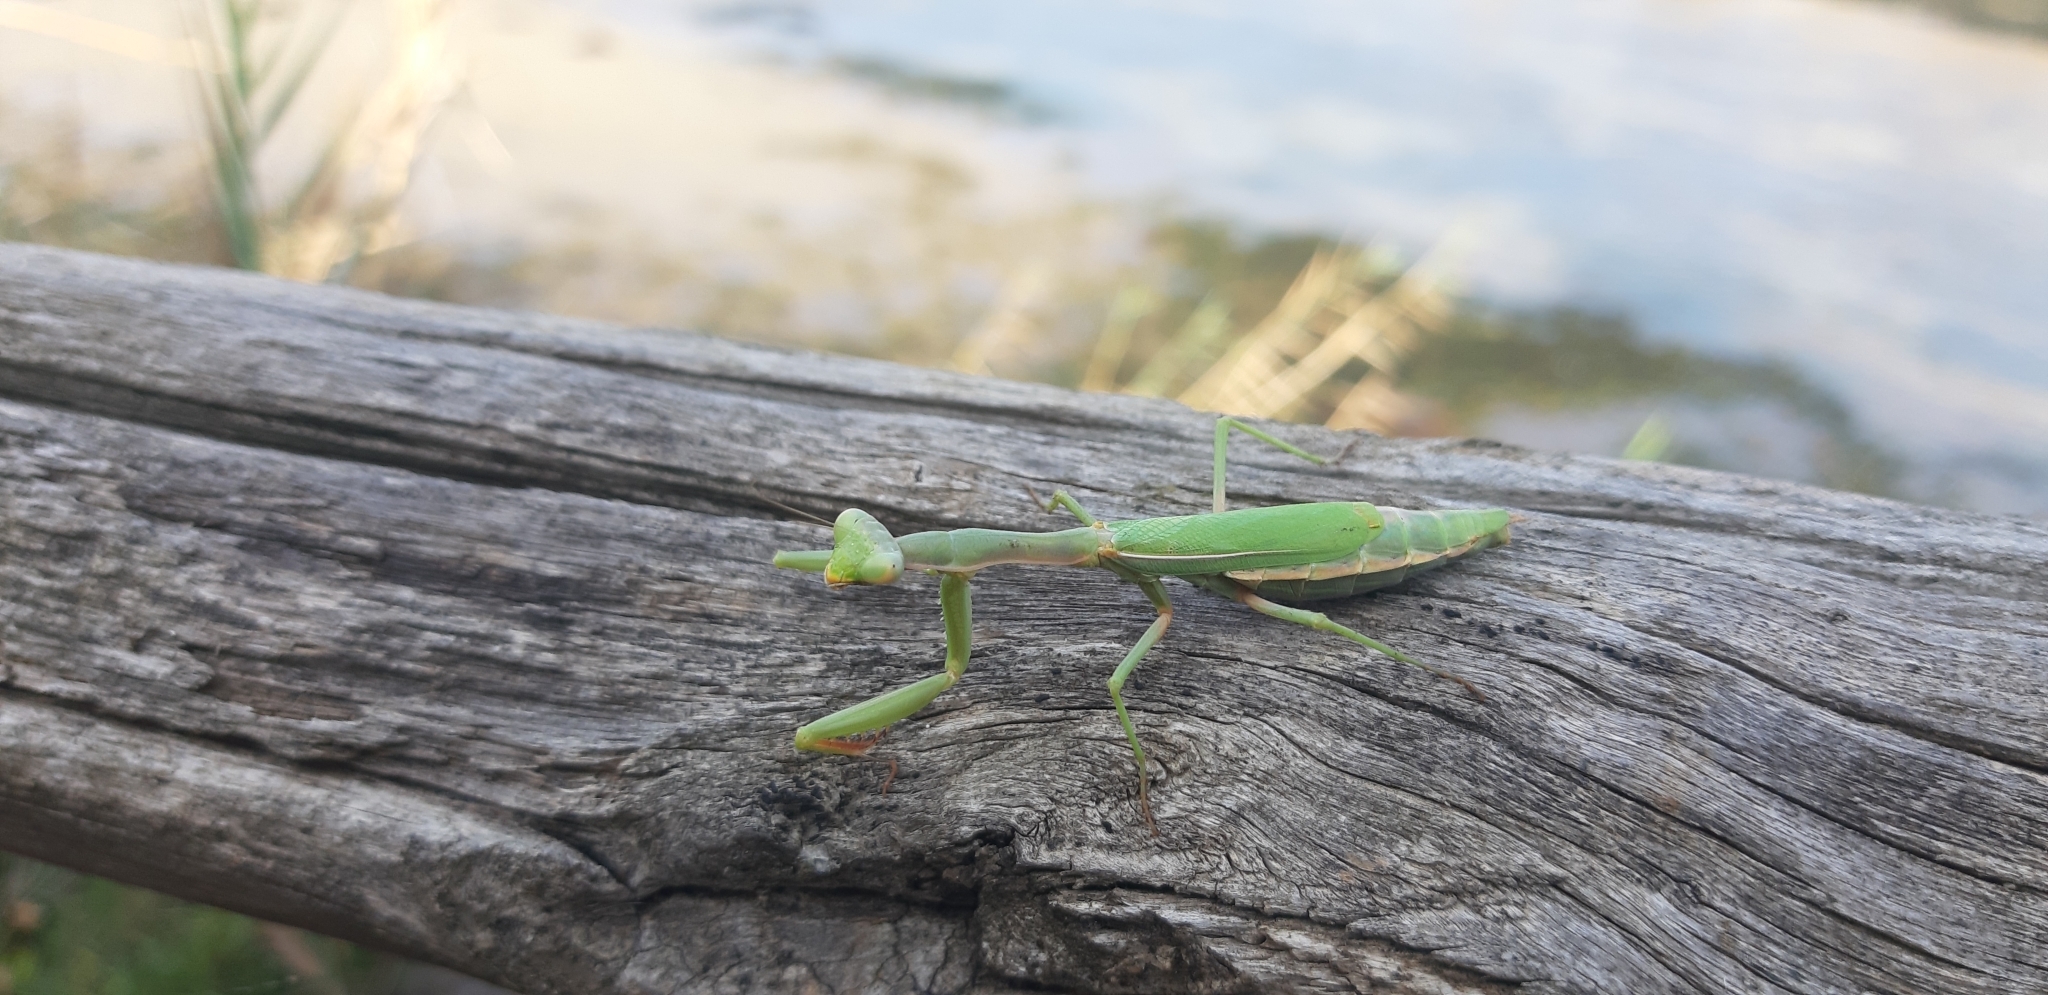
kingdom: Animalia
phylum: Arthropoda
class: Insecta
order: Mantodea
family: Eremiaphilidae
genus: Iris
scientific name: Iris oratoria
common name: Mediterranean mantis
